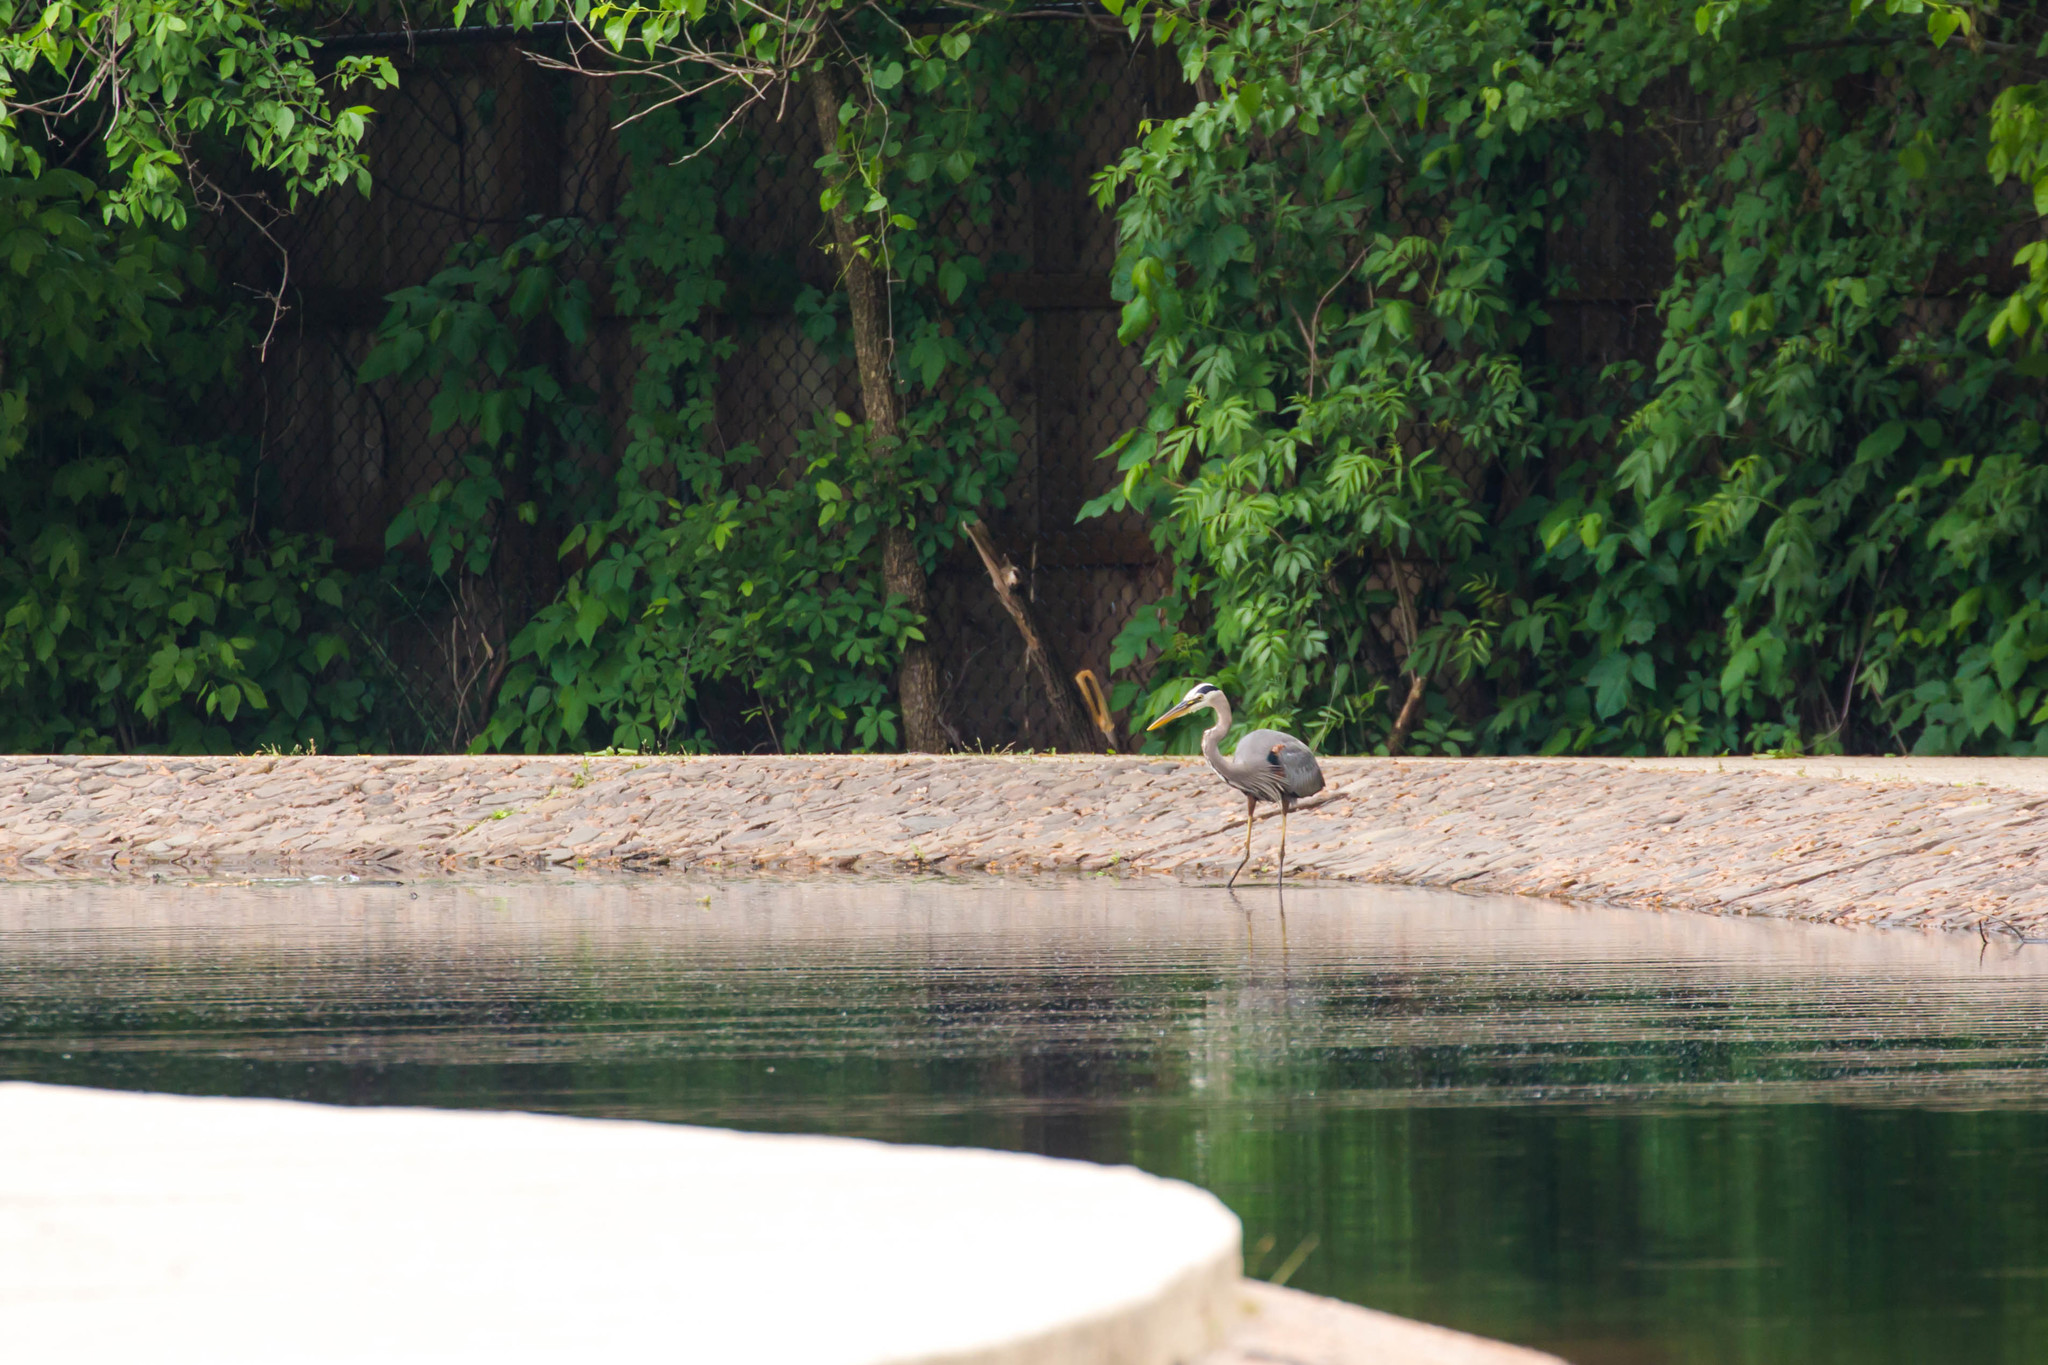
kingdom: Animalia
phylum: Chordata
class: Aves
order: Pelecaniformes
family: Ardeidae
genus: Ardea
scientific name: Ardea herodias
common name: Great blue heron
